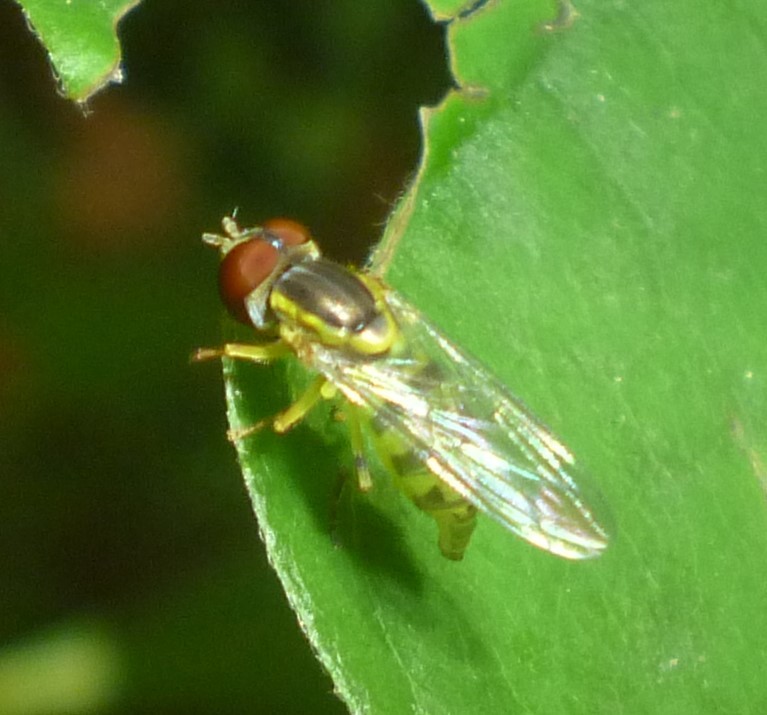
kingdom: Animalia
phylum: Arthropoda
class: Insecta
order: Diptera
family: Syrphidae
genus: Toxomerus
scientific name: Toxomerus geminatus
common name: Eastern calligrapher
